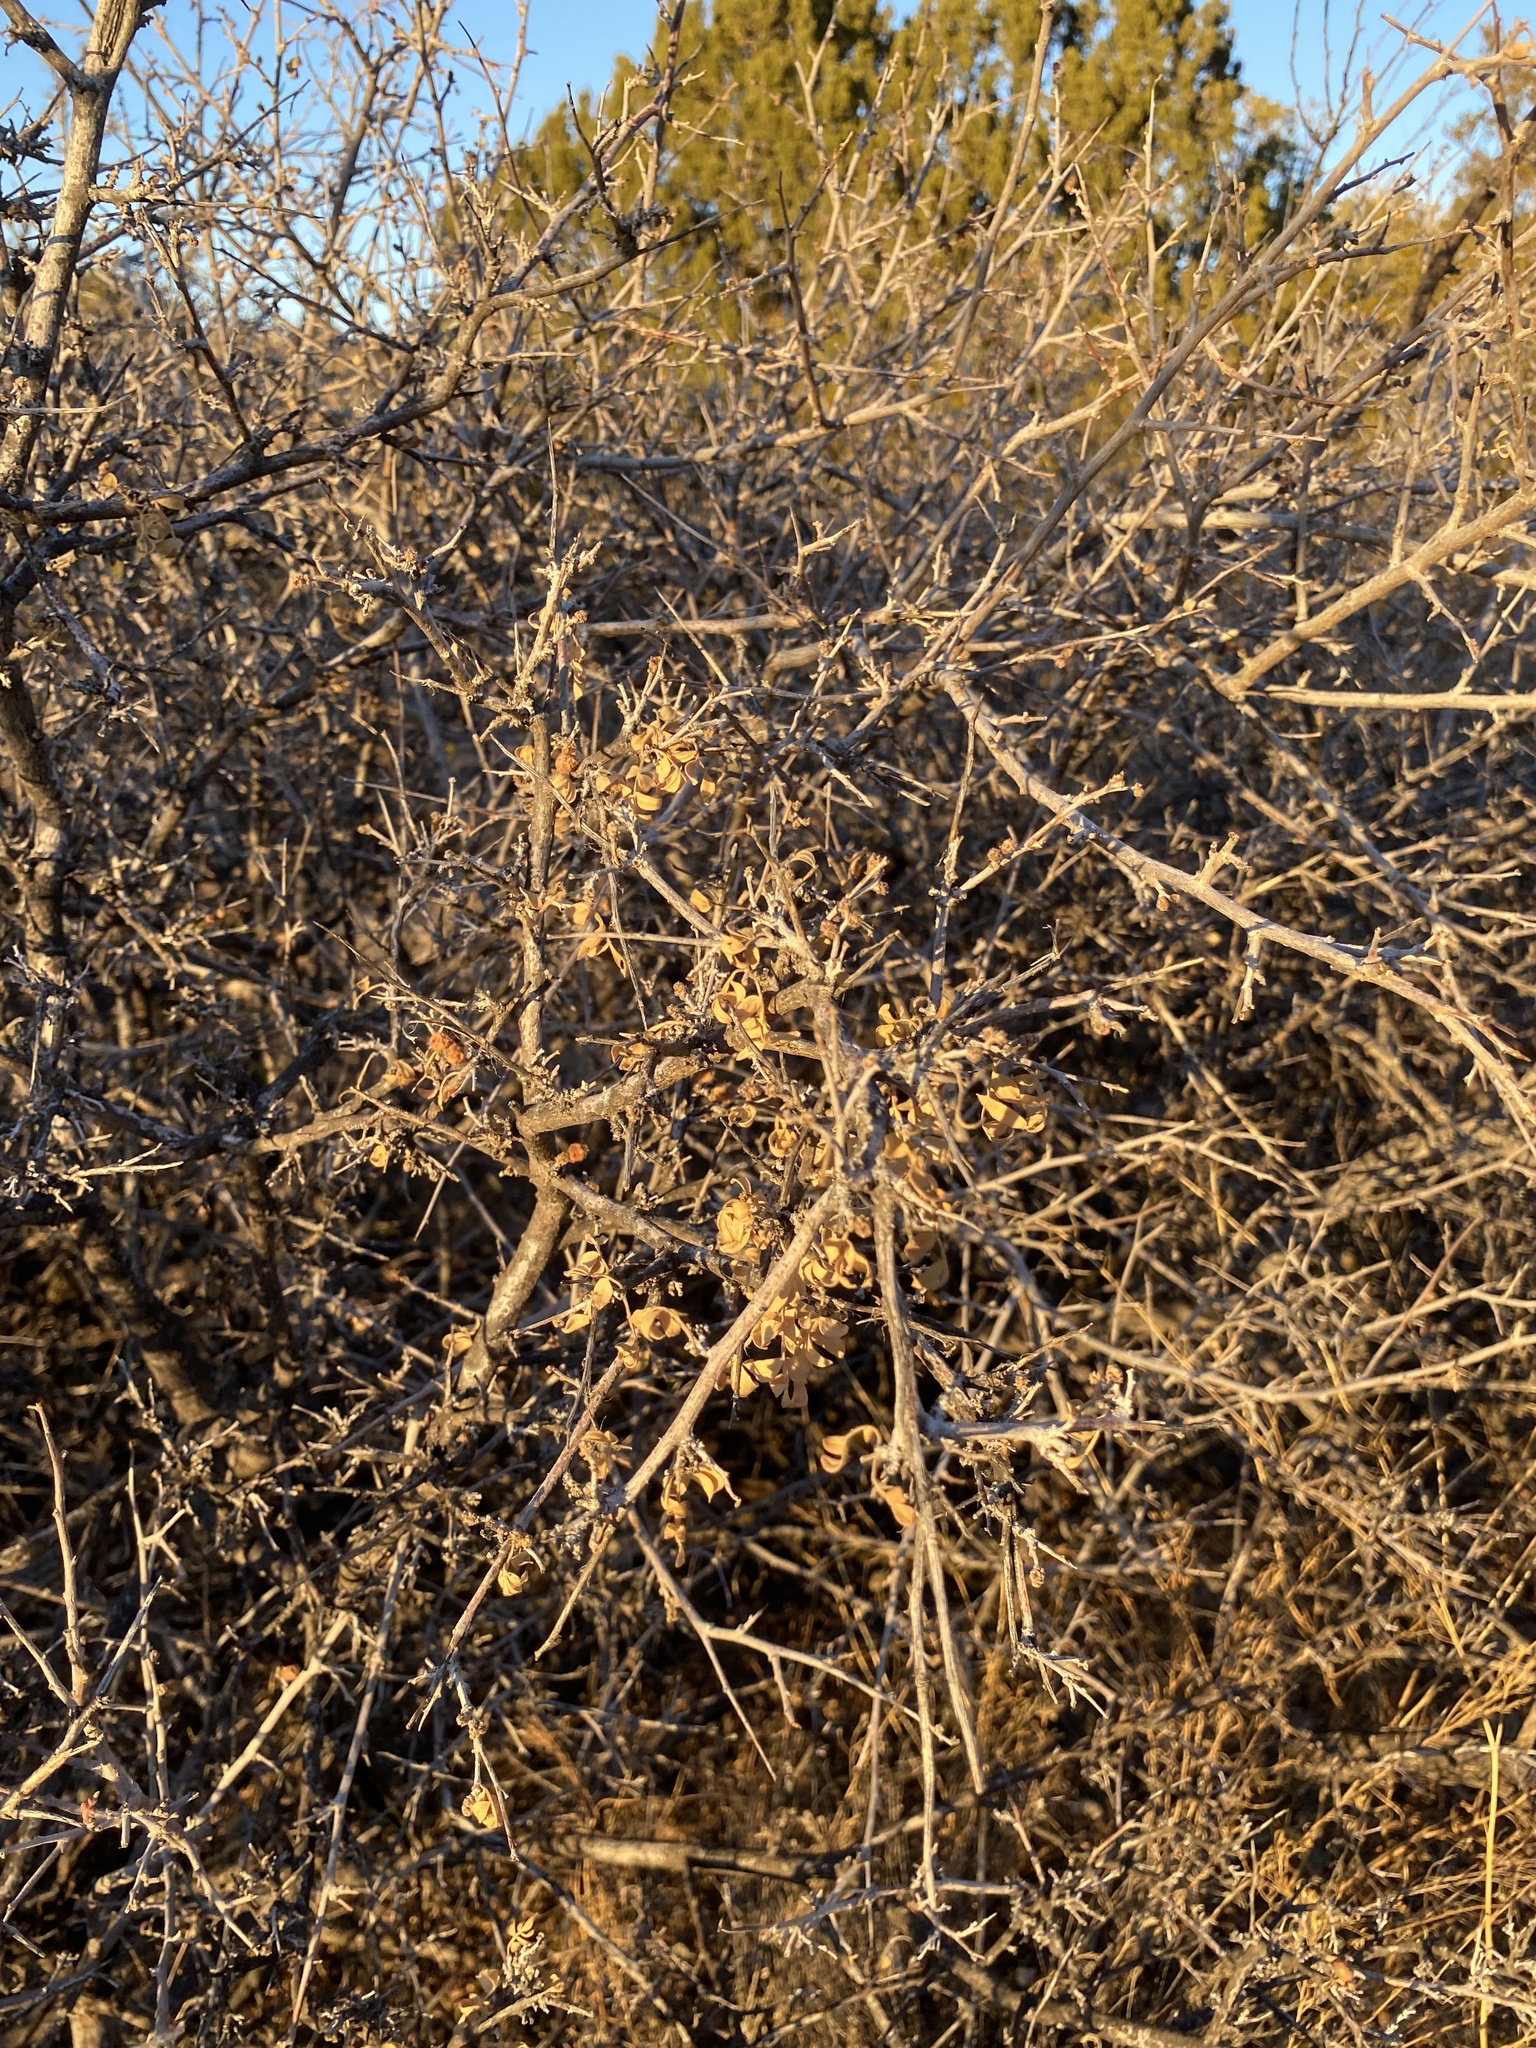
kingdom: Plantae
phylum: Tracheophyta
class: Magnoliopsida
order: Sapindales
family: Anacardiaceae
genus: Rhus
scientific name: Rhus microphylla
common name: Desert sumac
